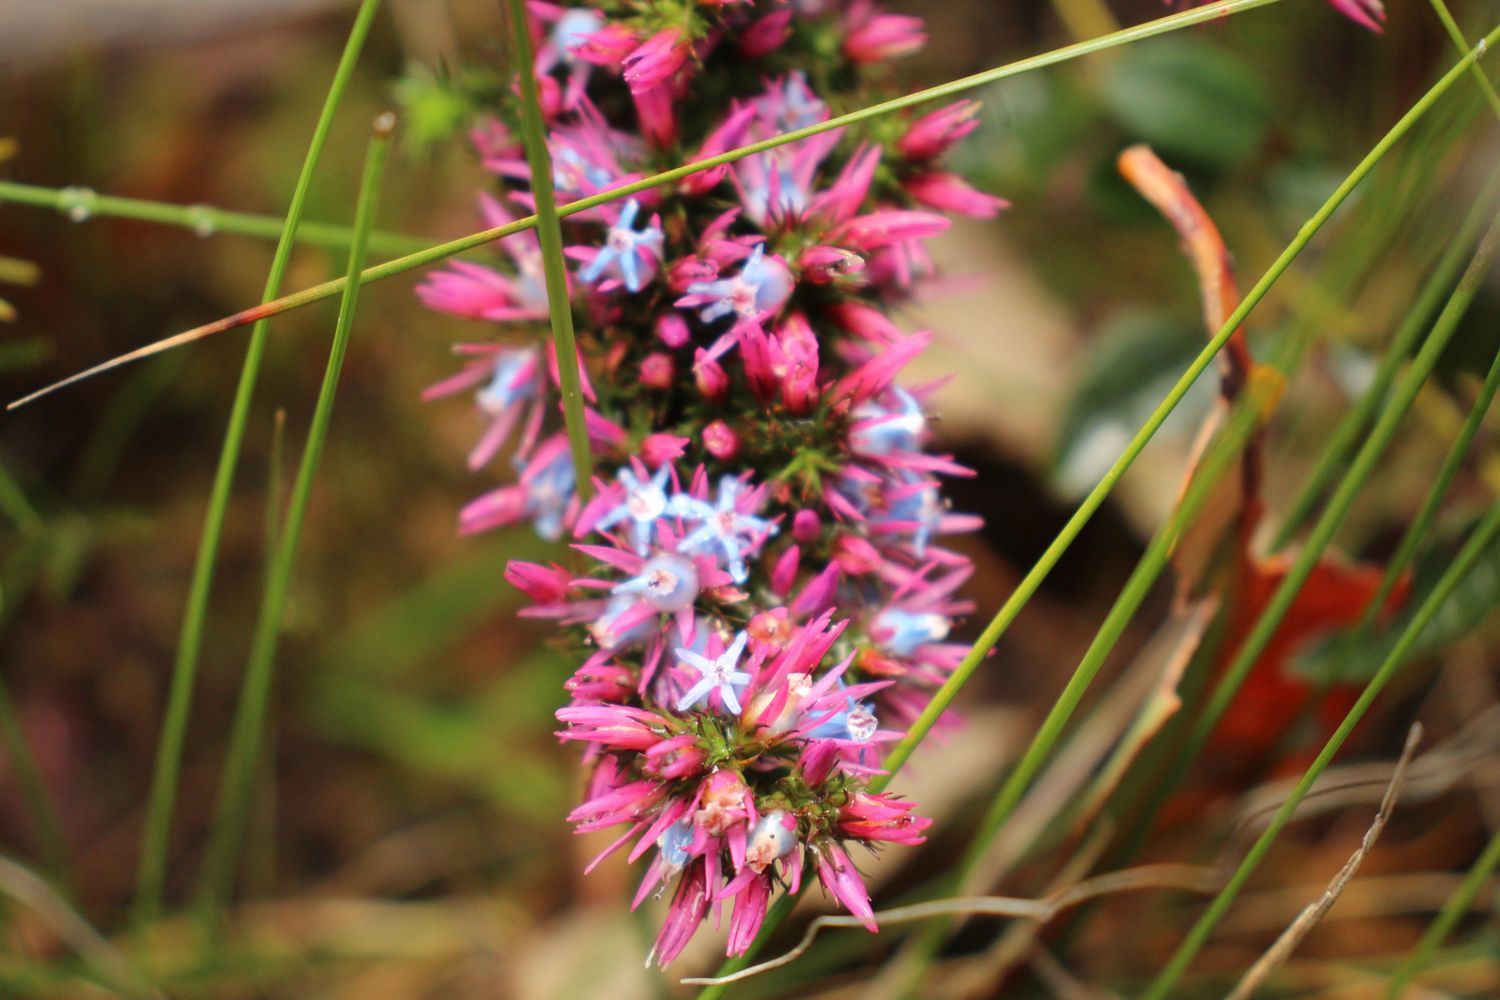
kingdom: Plantae
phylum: Tracheophyta
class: Magnoliopsida
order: Ericales
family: Ericaceae
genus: Andersonia
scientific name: Andersonia caerulea
